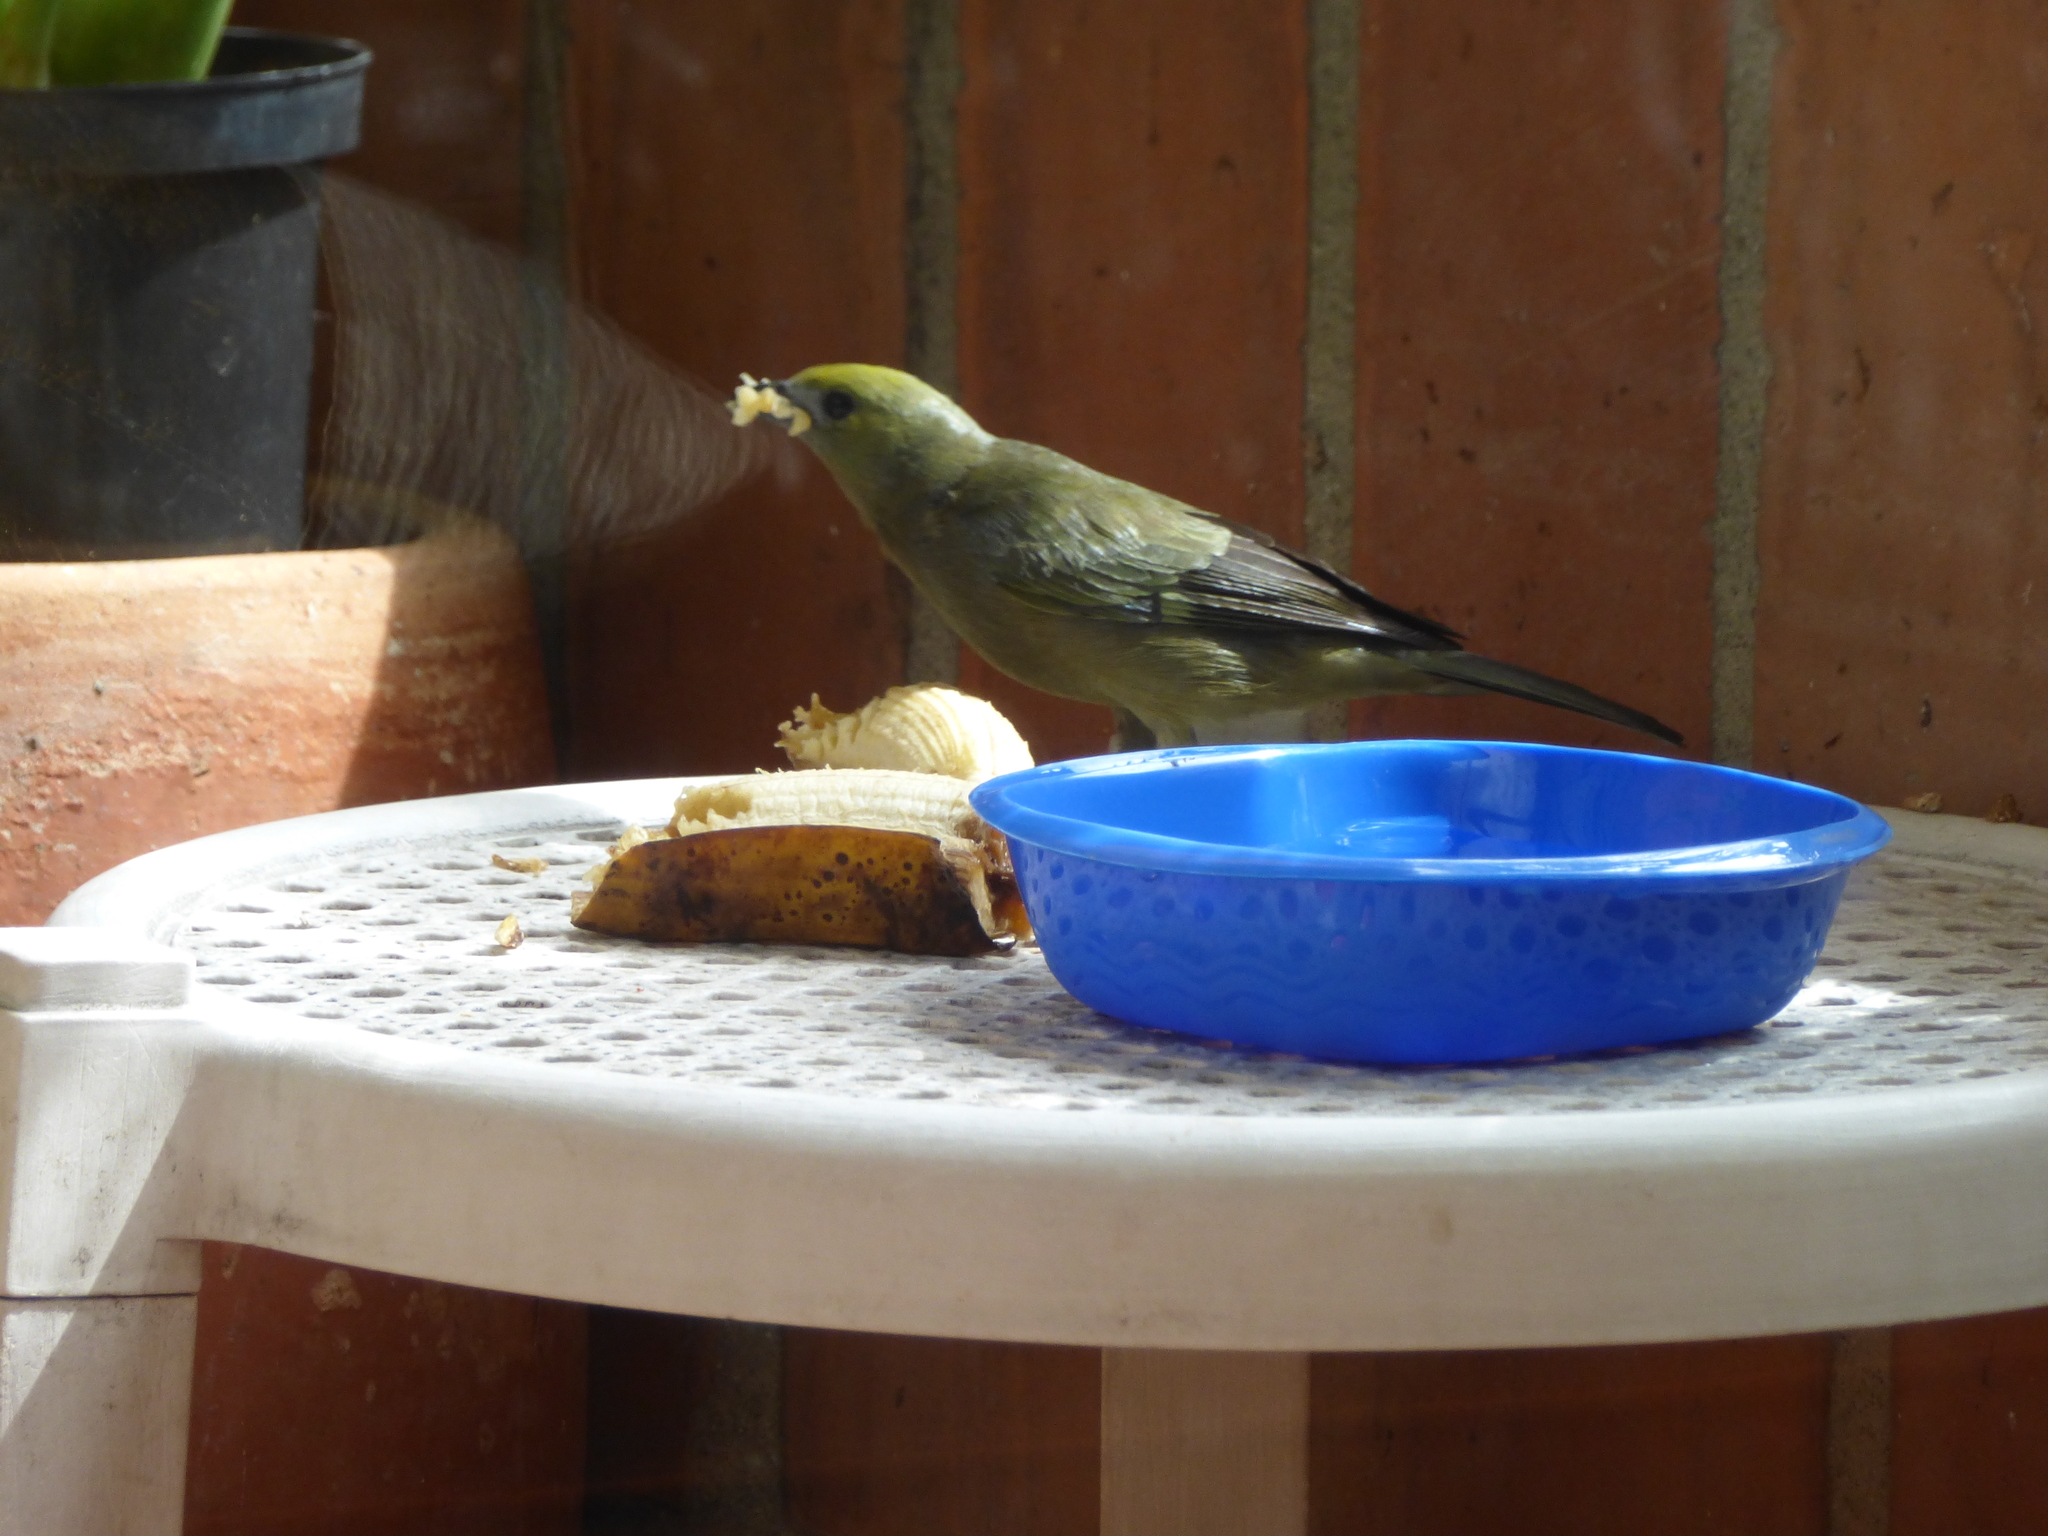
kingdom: Animalia
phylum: Chordata
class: Aves
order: Passeriformes
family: Thraupidae
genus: Thraupis
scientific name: Thraupis palmarum
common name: Palm tanager
